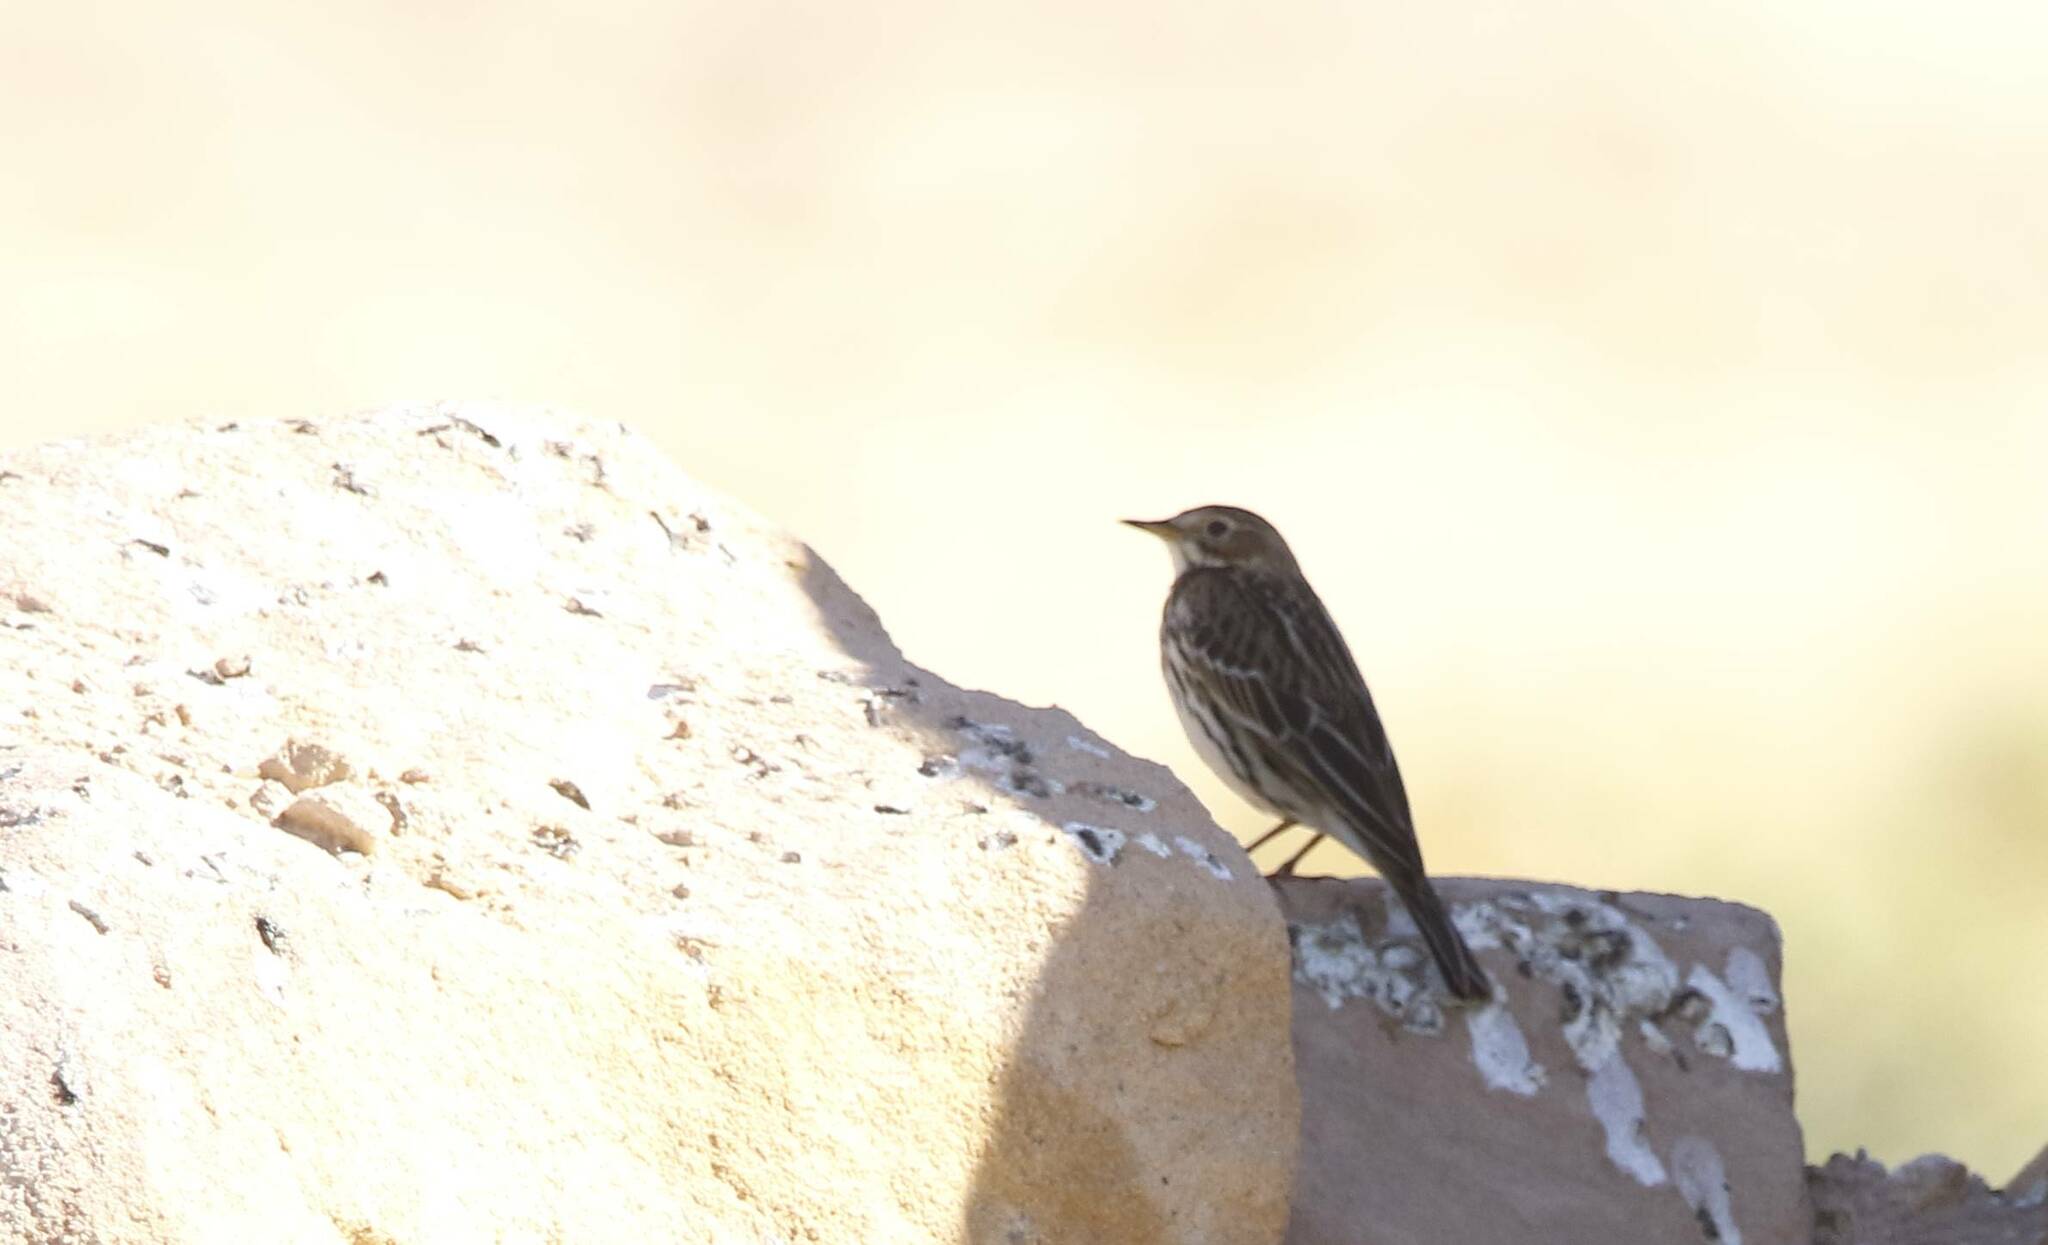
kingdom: Animalia
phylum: Chordata
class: Aves
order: Passeriformes
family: Motacillidae
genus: Anthus
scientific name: Anthus cervinus
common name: Red-throated pipit
